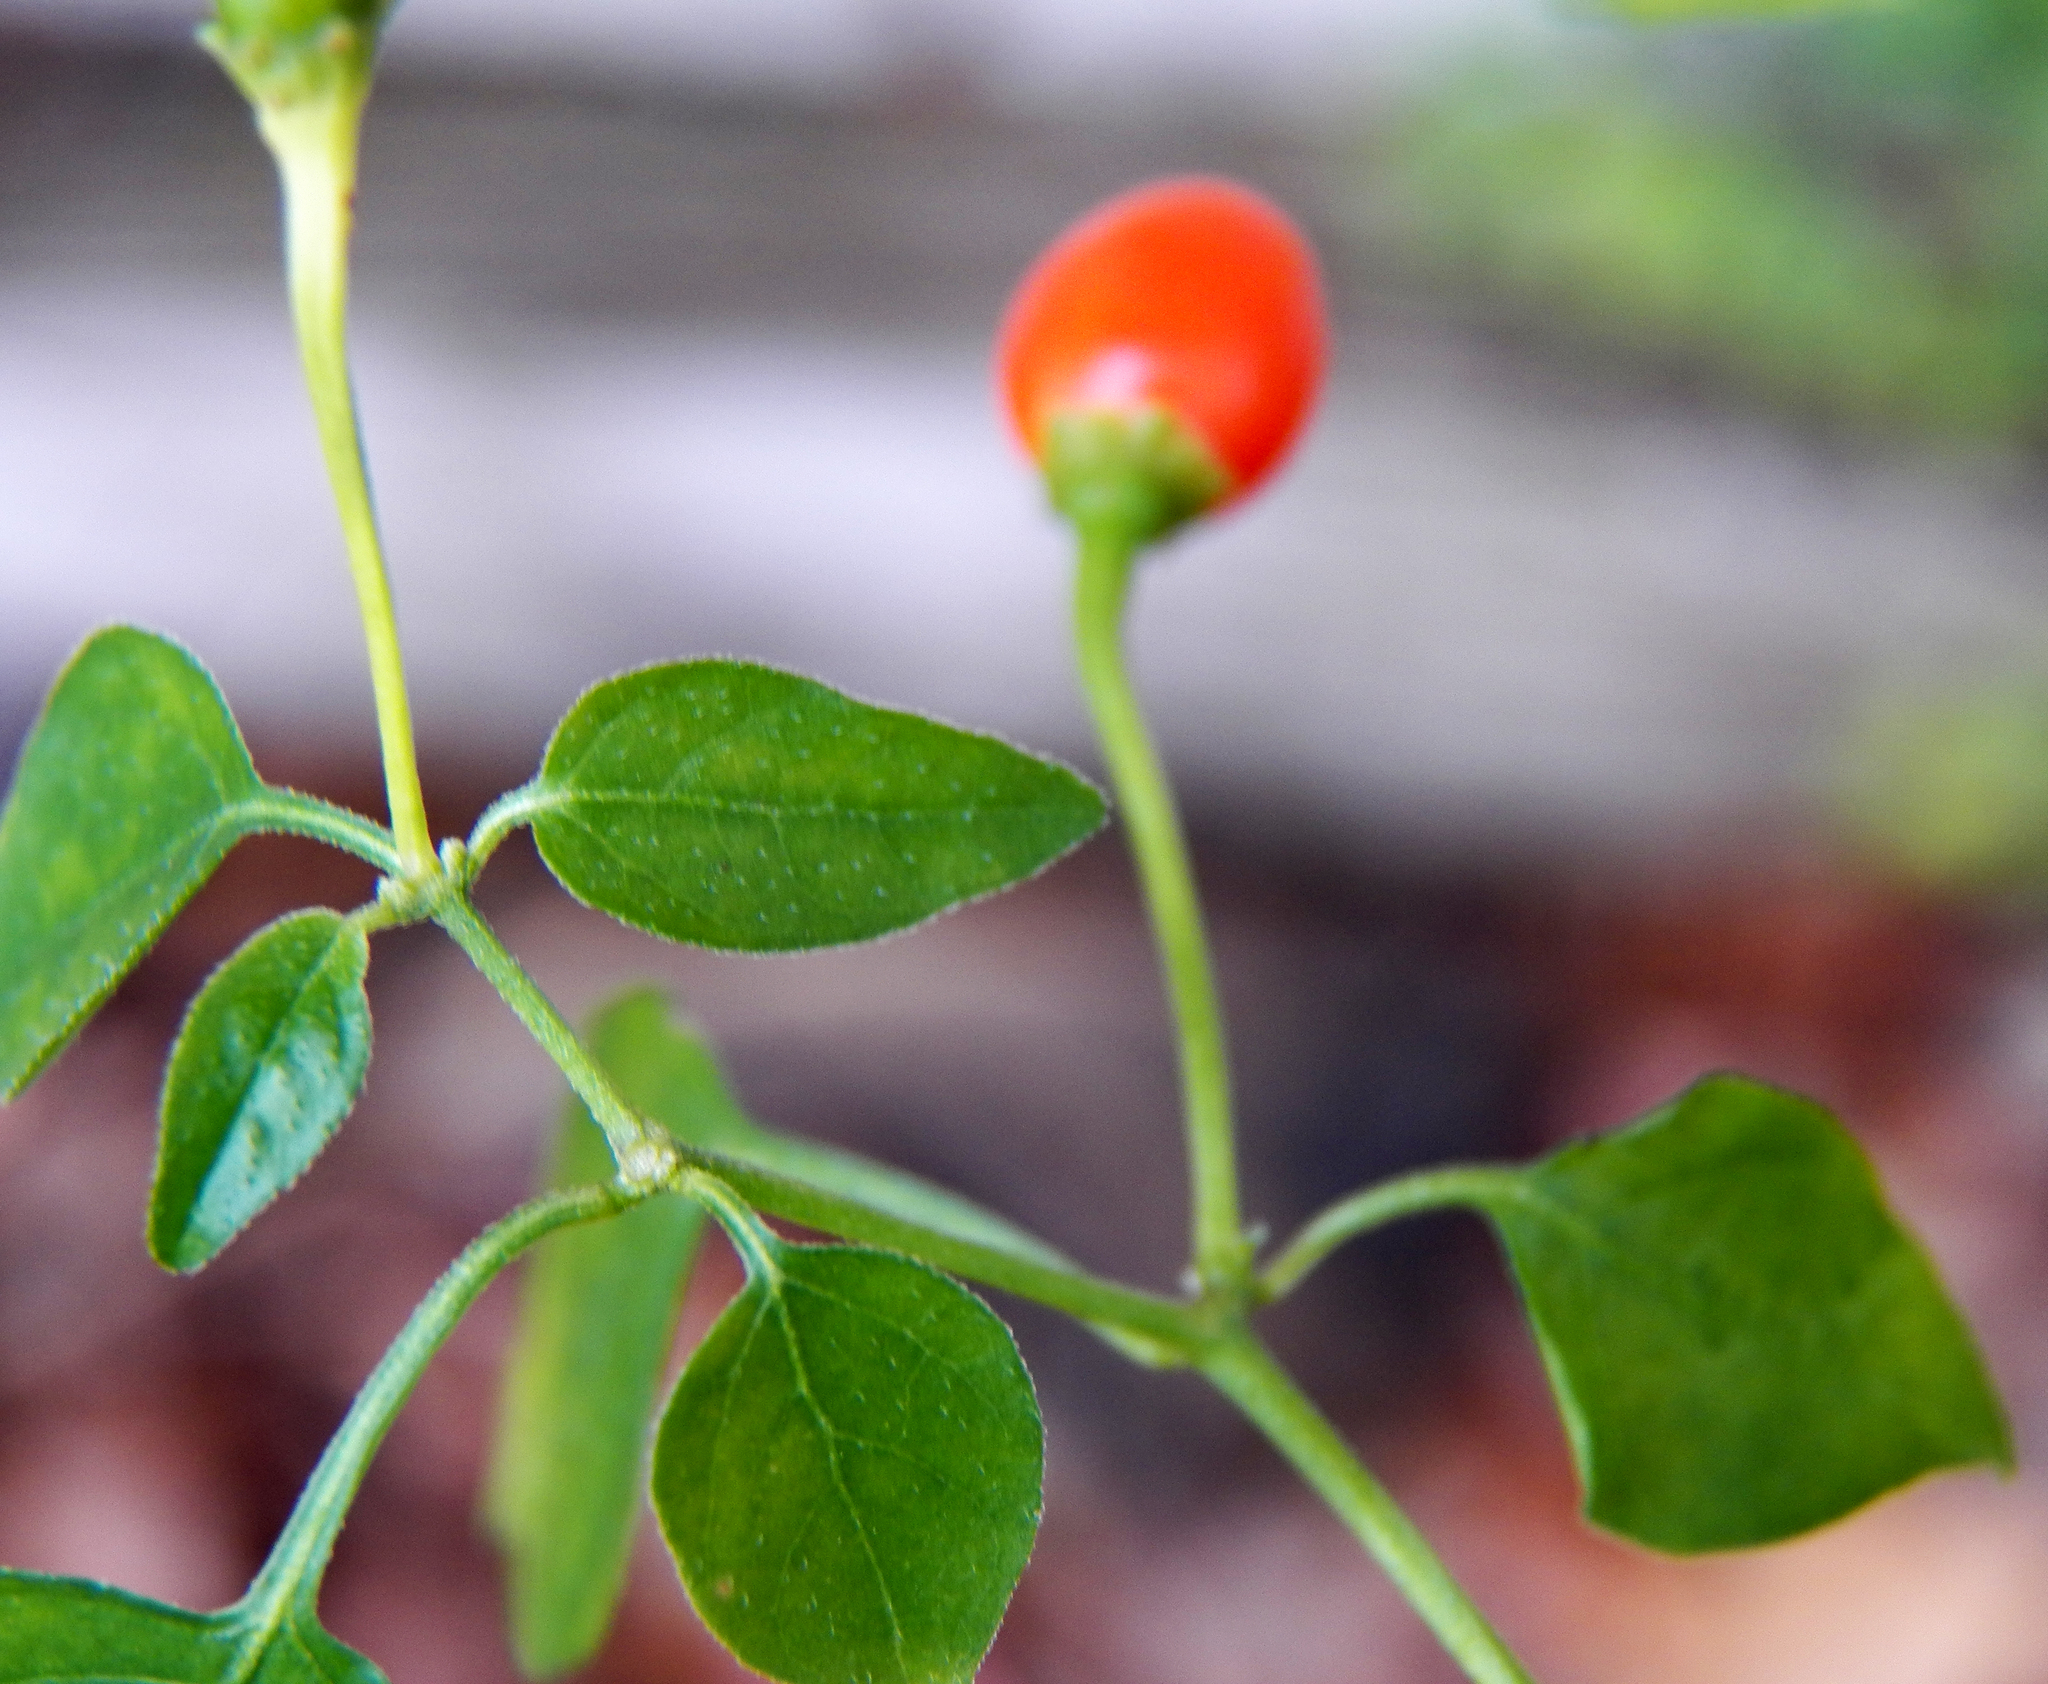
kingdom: Plantae
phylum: Tracheophyta
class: Magnoliopsida
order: Solanales
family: Solanaceae
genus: Capsicum
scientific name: Capsicum annuum
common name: Sweet pepper
